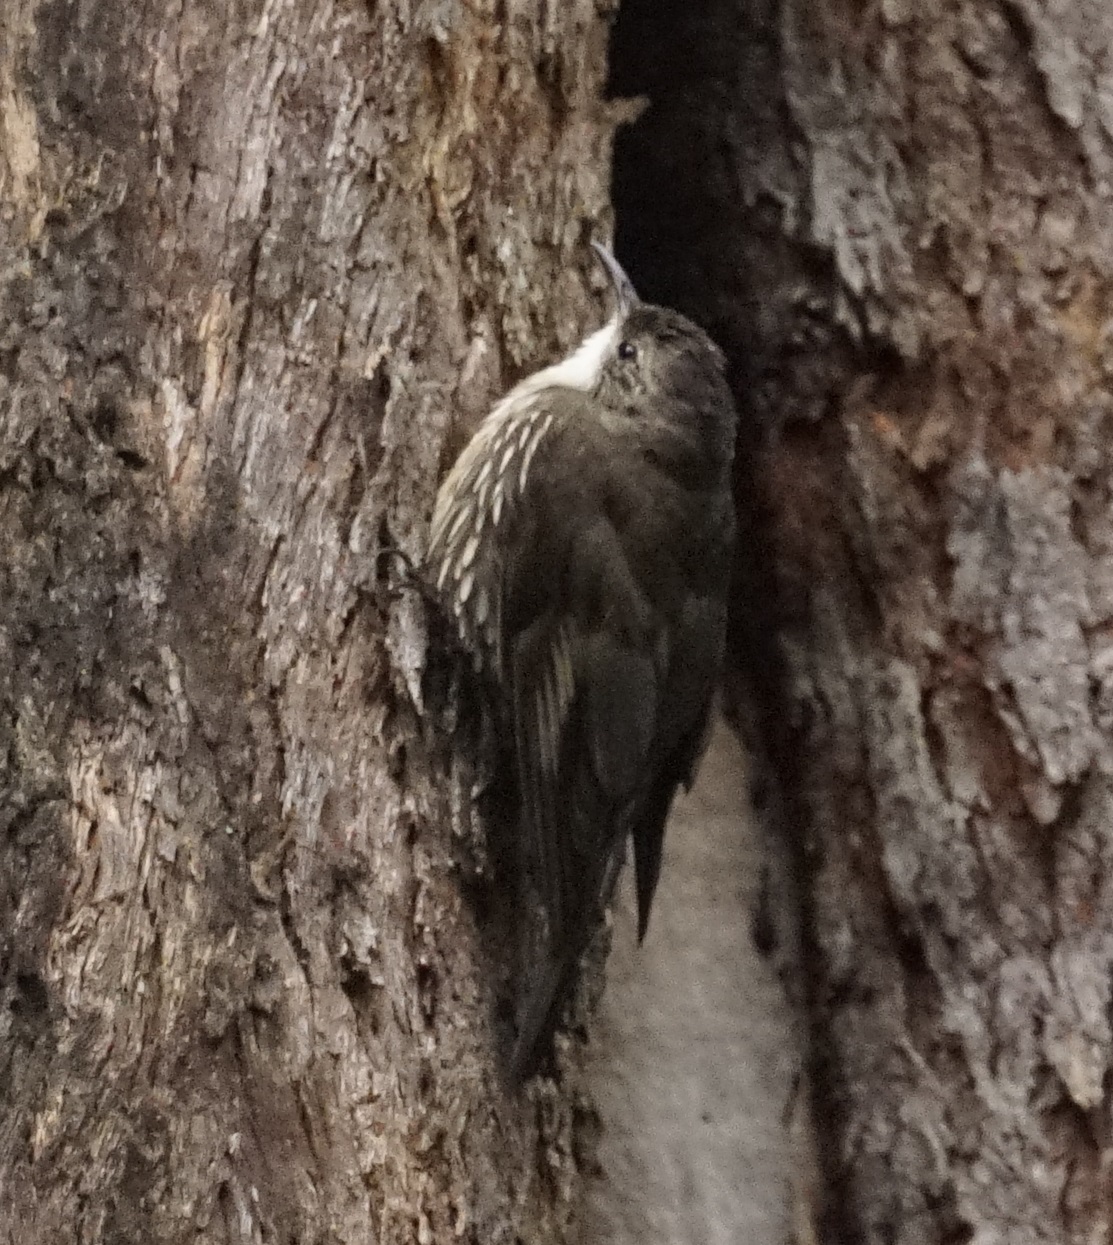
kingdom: Animalia
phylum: Chordata
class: Aves
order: Passeriformes
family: Climacteridae
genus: Cormobates
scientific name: Cormobates leucophaea
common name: White-throated treecreeper
